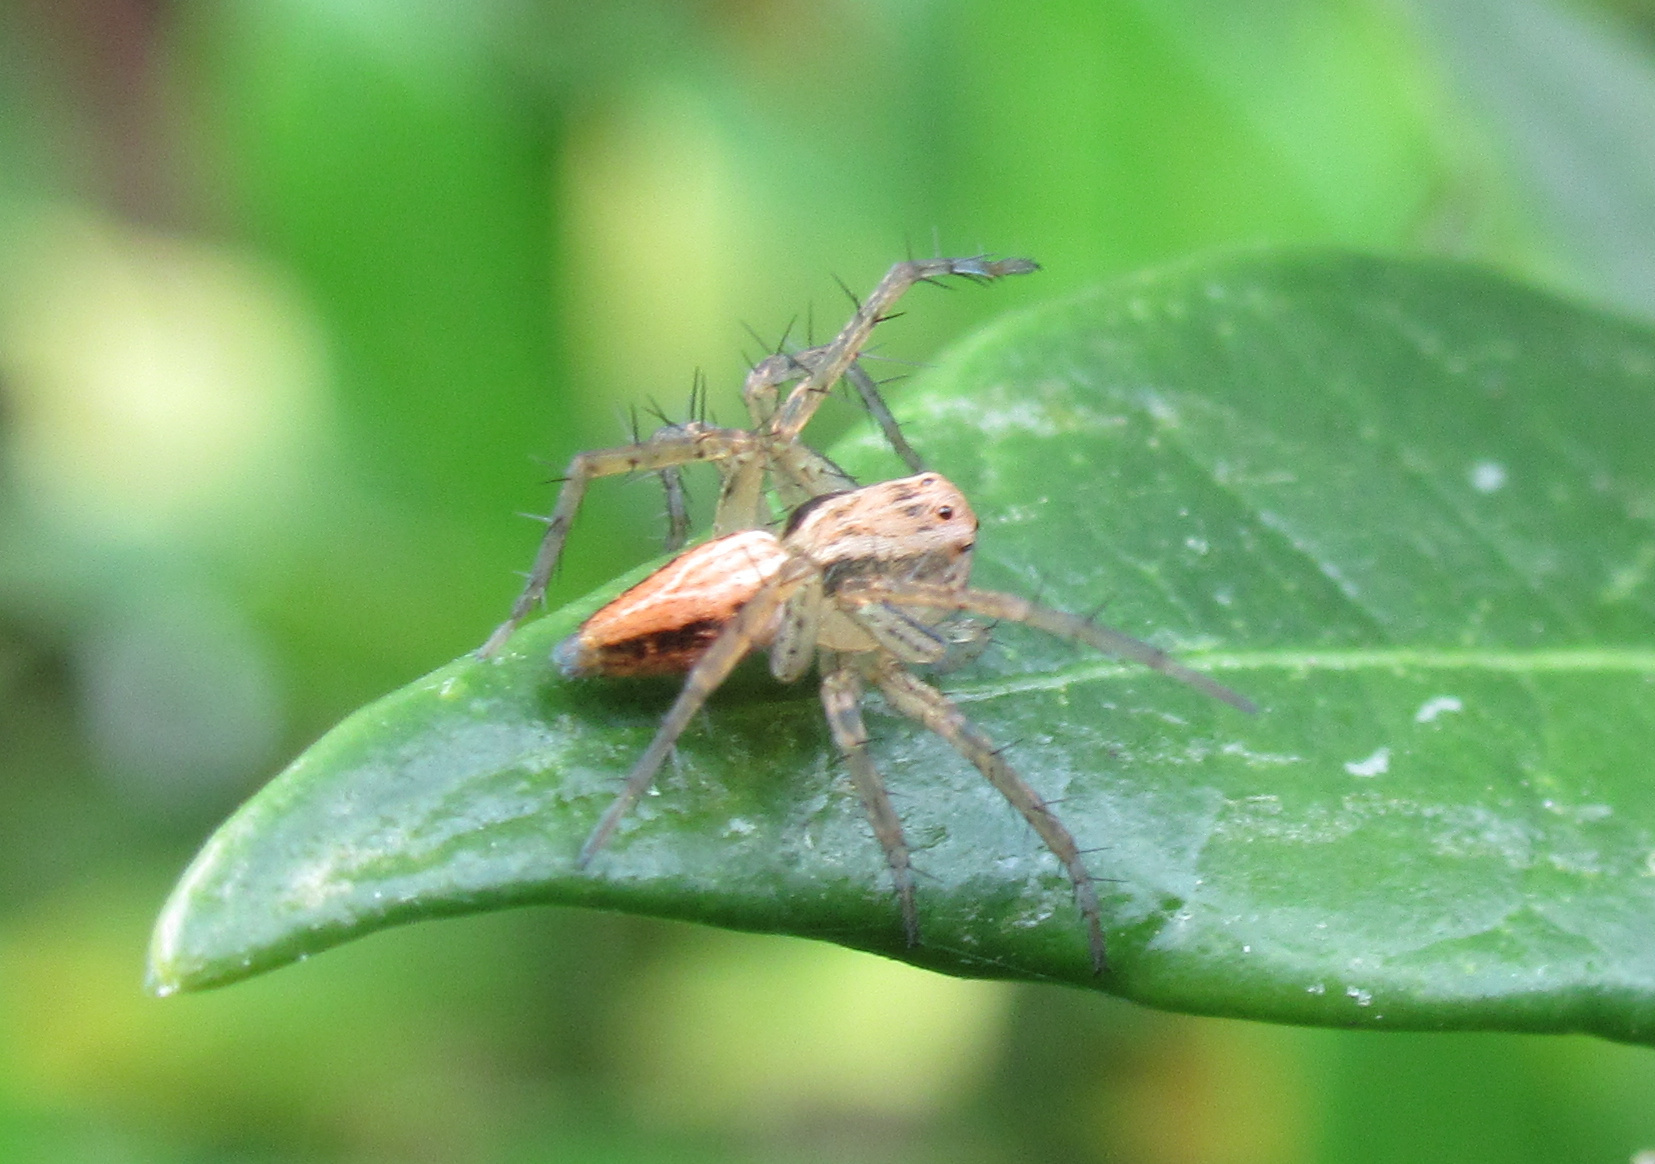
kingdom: Animalia
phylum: Arthropoda
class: Arachnida
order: Araneae
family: Oxyopidae
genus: Oxyopes
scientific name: Oxyopes gracilipes
